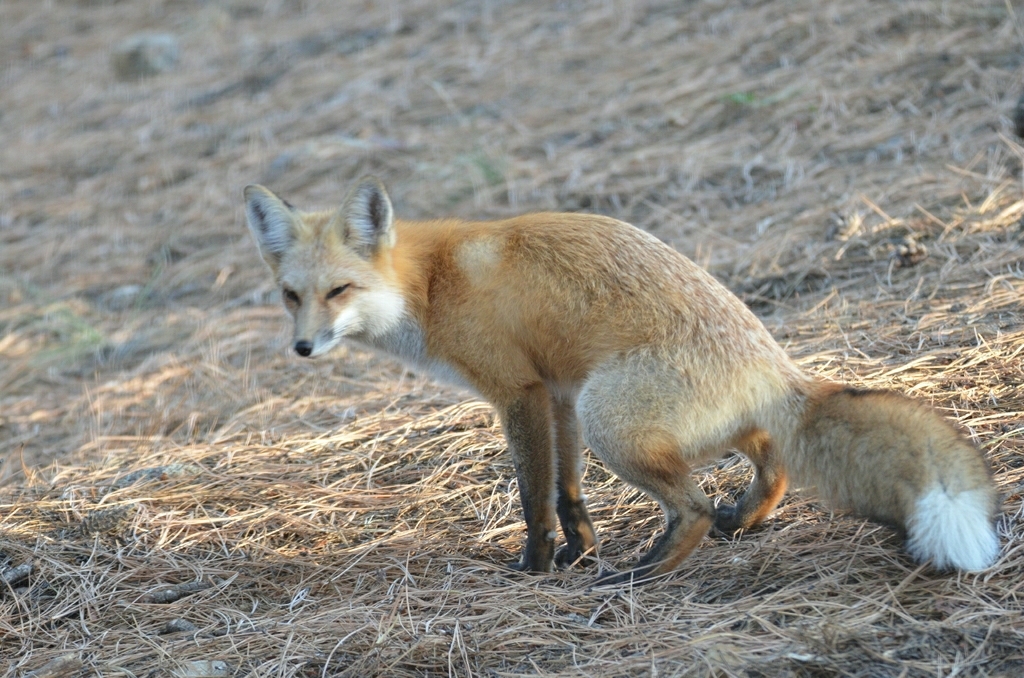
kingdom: Animalia
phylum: Chordata
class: Mammalia
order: Carnivora
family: Canidae
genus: Vulpes
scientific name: Vulpes vulpes
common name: Red fox
